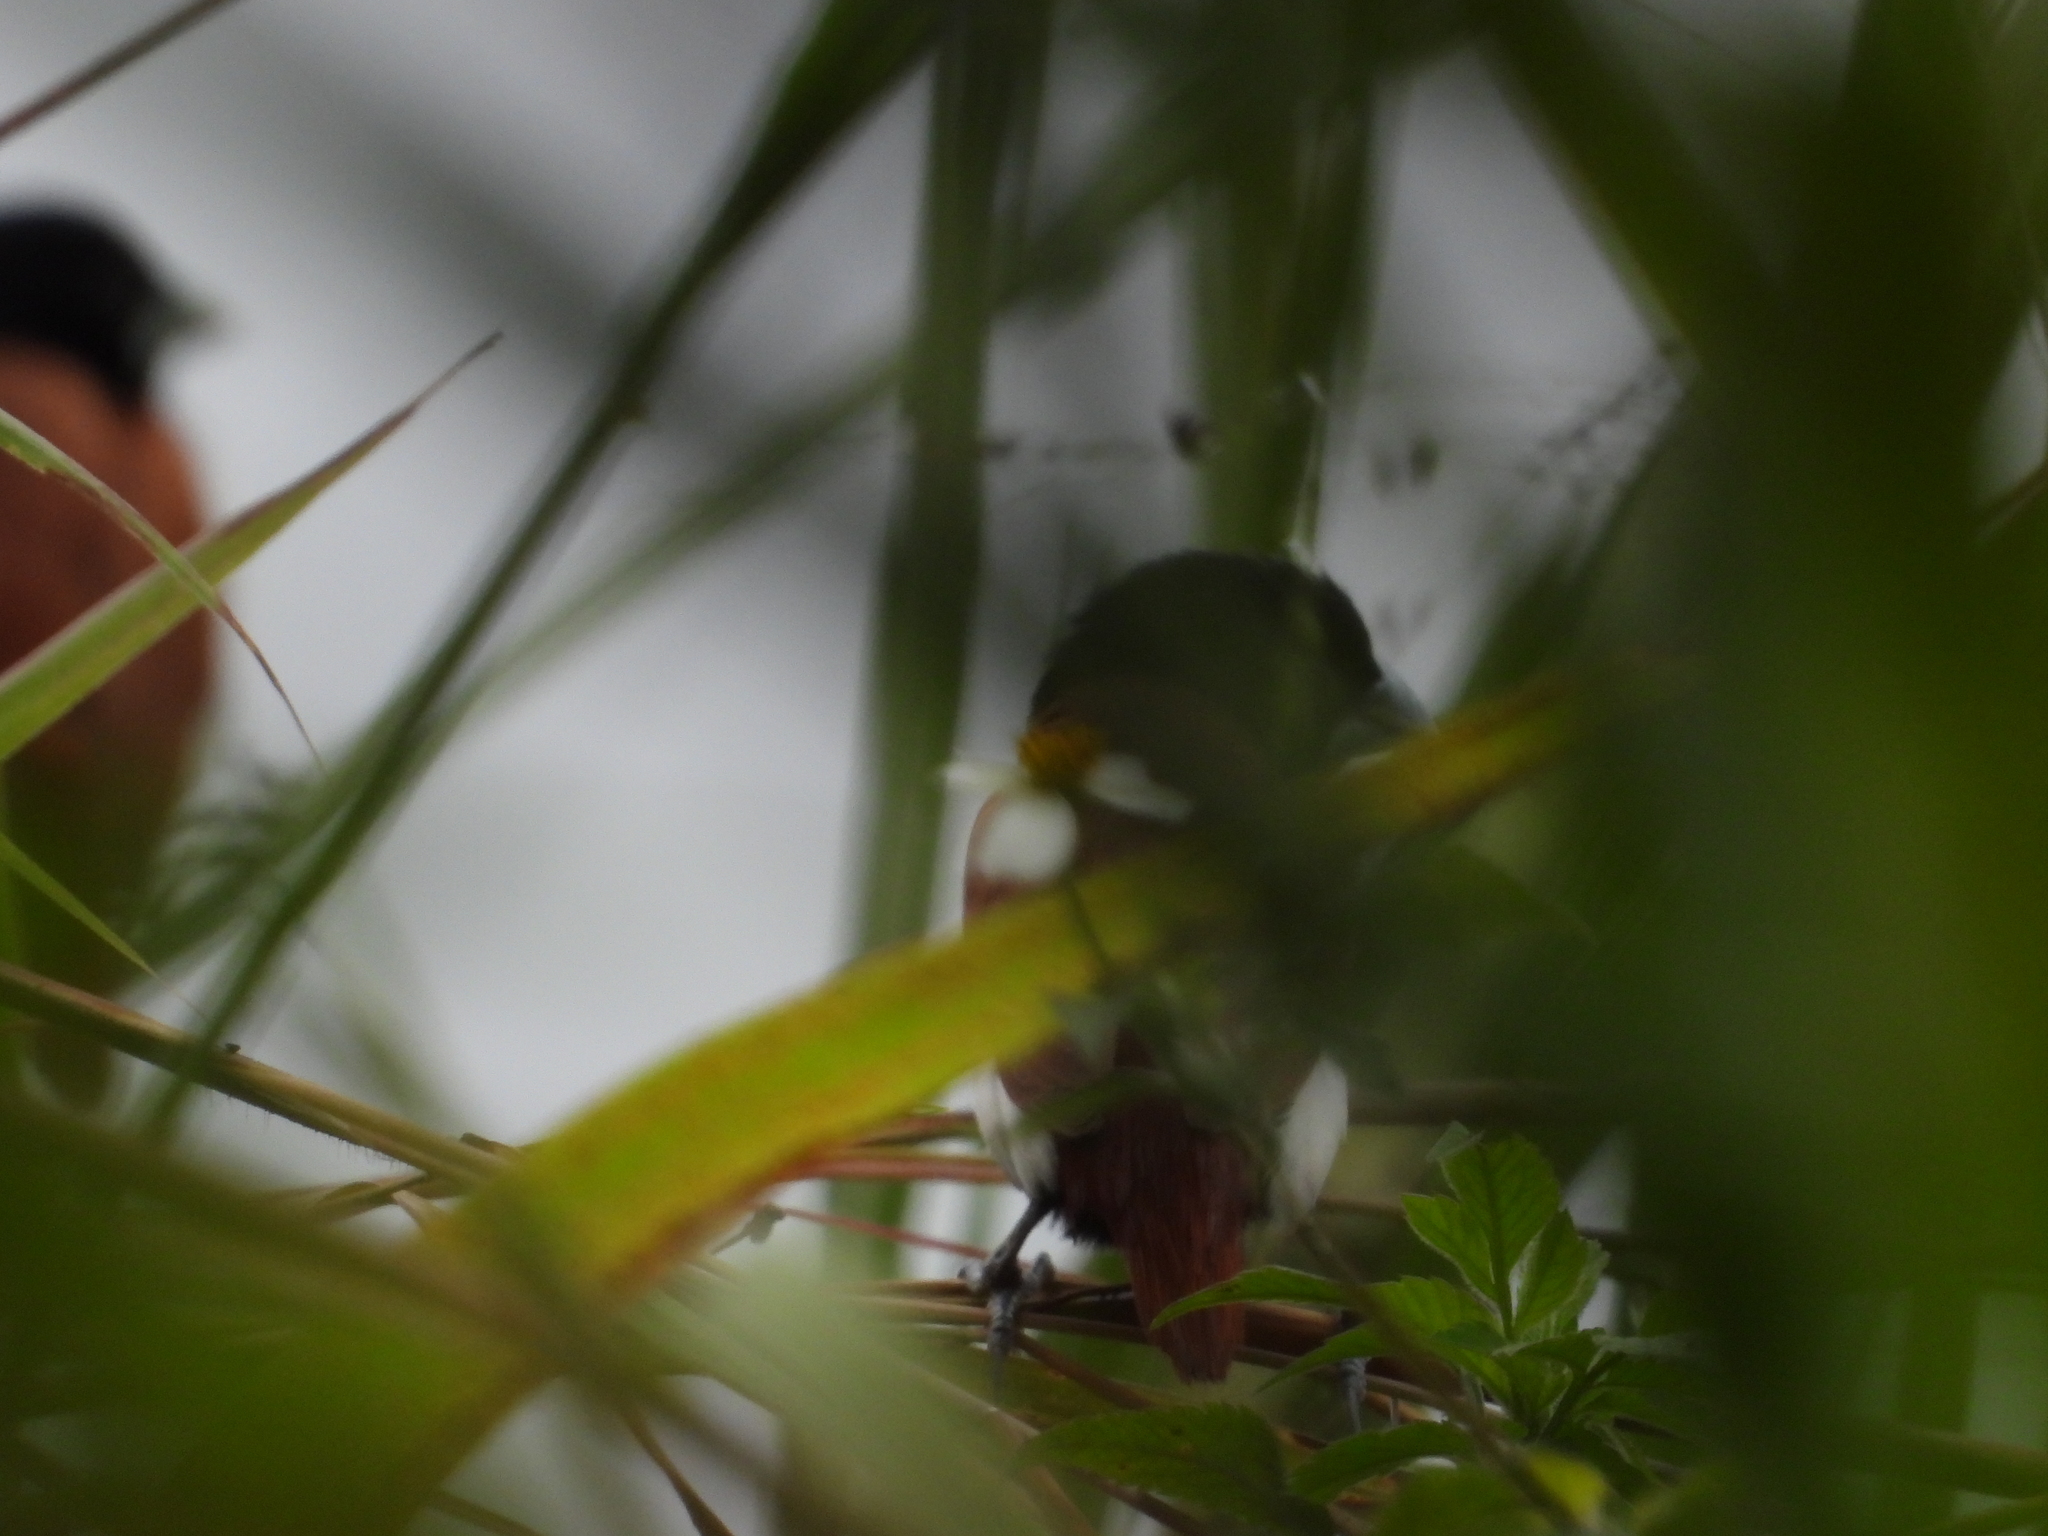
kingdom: Animalia
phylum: Chordata
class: Aves
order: Passeriformes
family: Estrildidae
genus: Lonchura
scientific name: Lonchura malacca
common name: Tricolored munia
